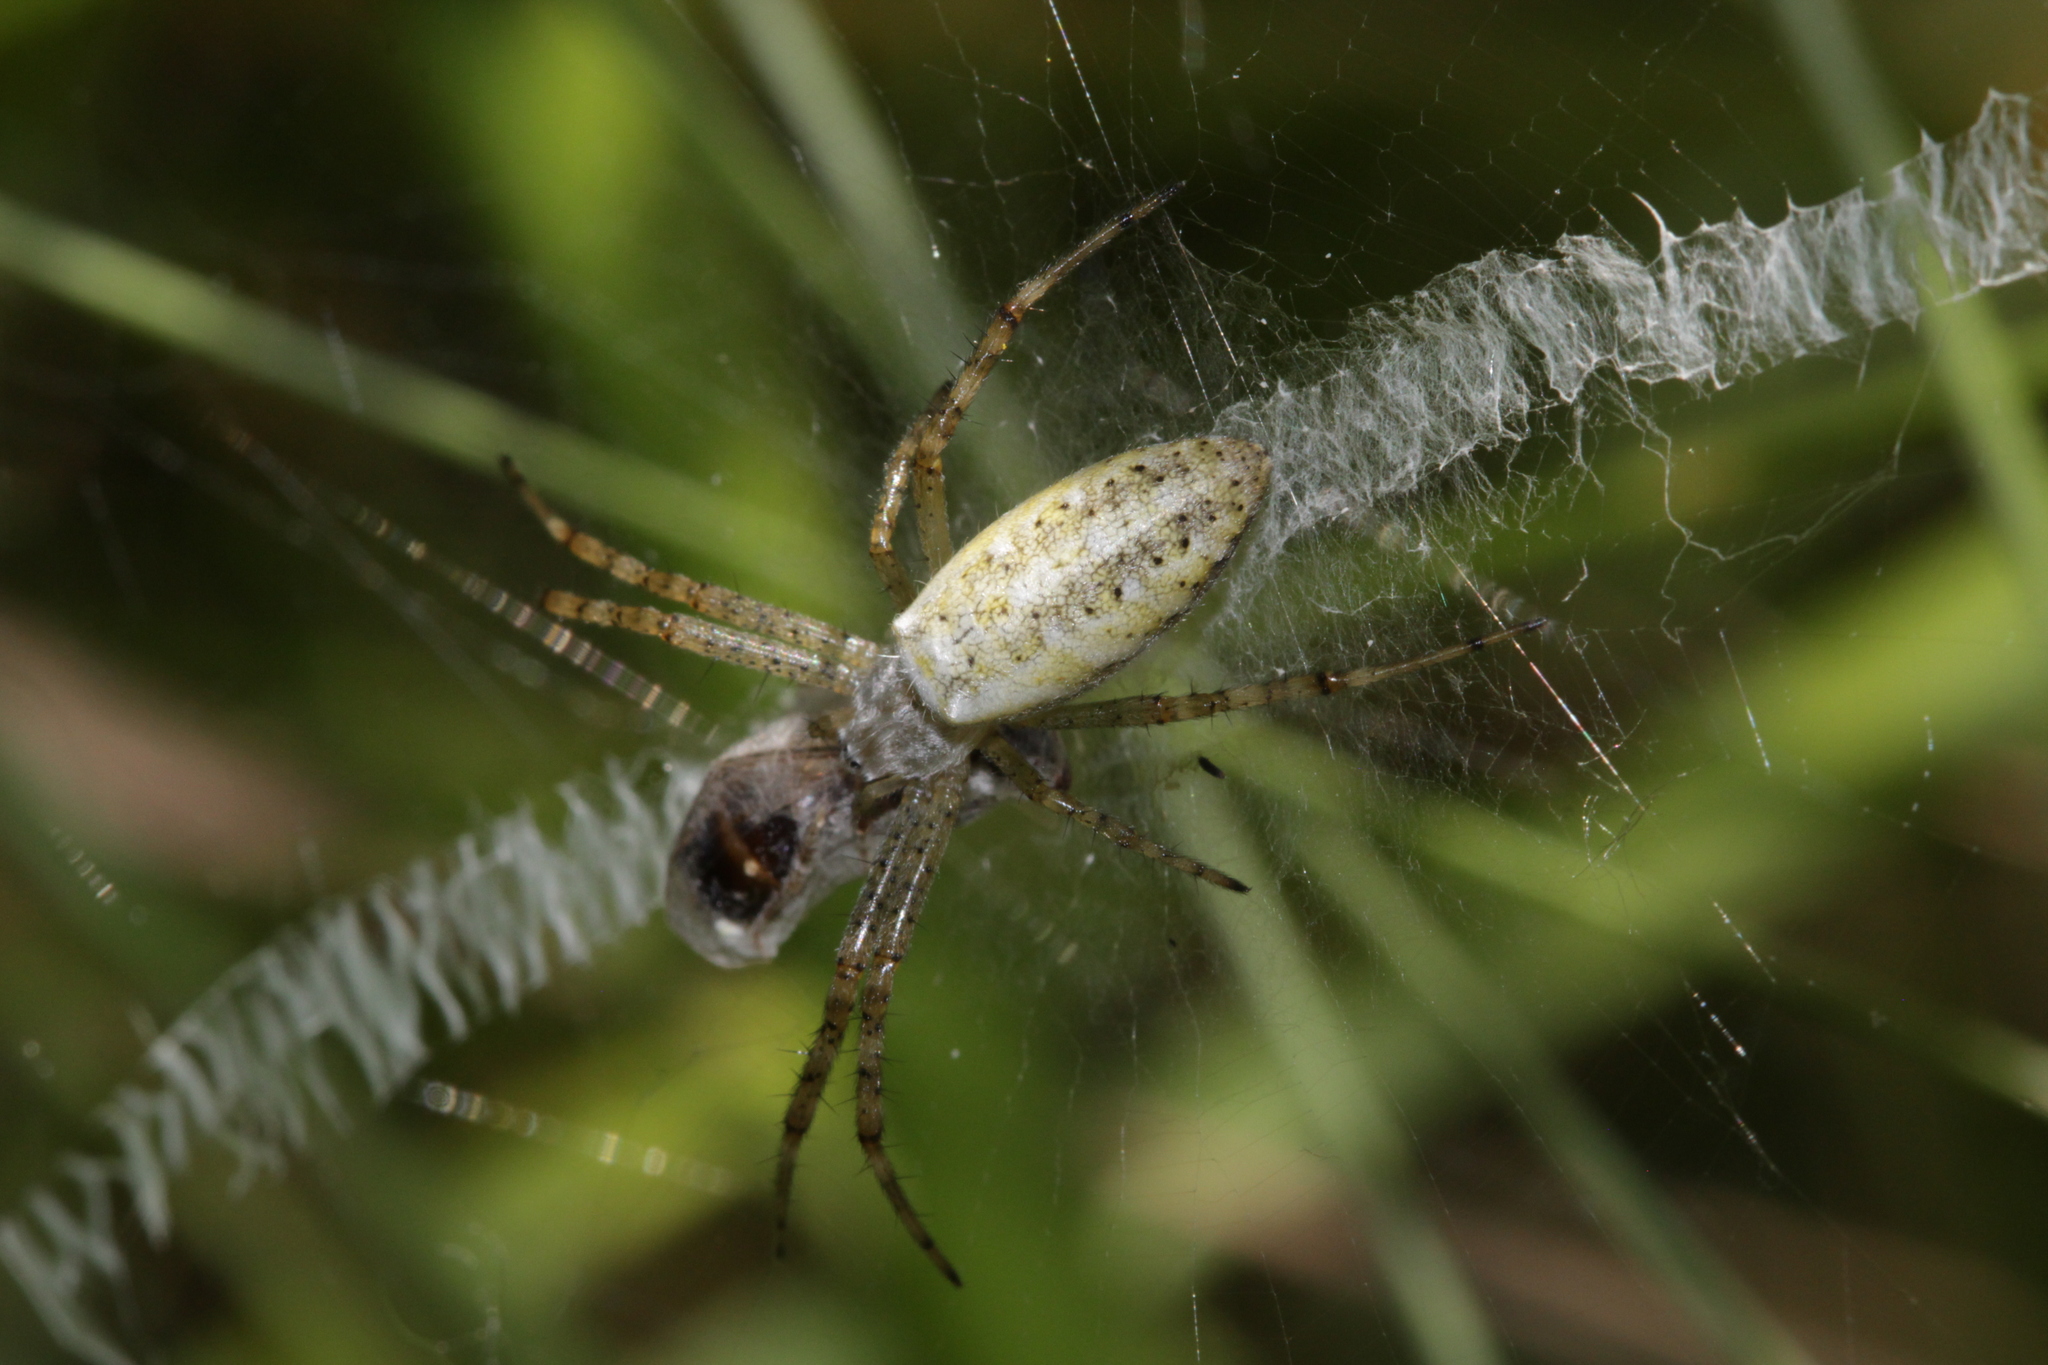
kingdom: Animalia
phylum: Arthropoda
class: Arachnida
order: Araneae
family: Araneidae
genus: Argiope
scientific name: Argiope bruennichi
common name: Wasp spider
